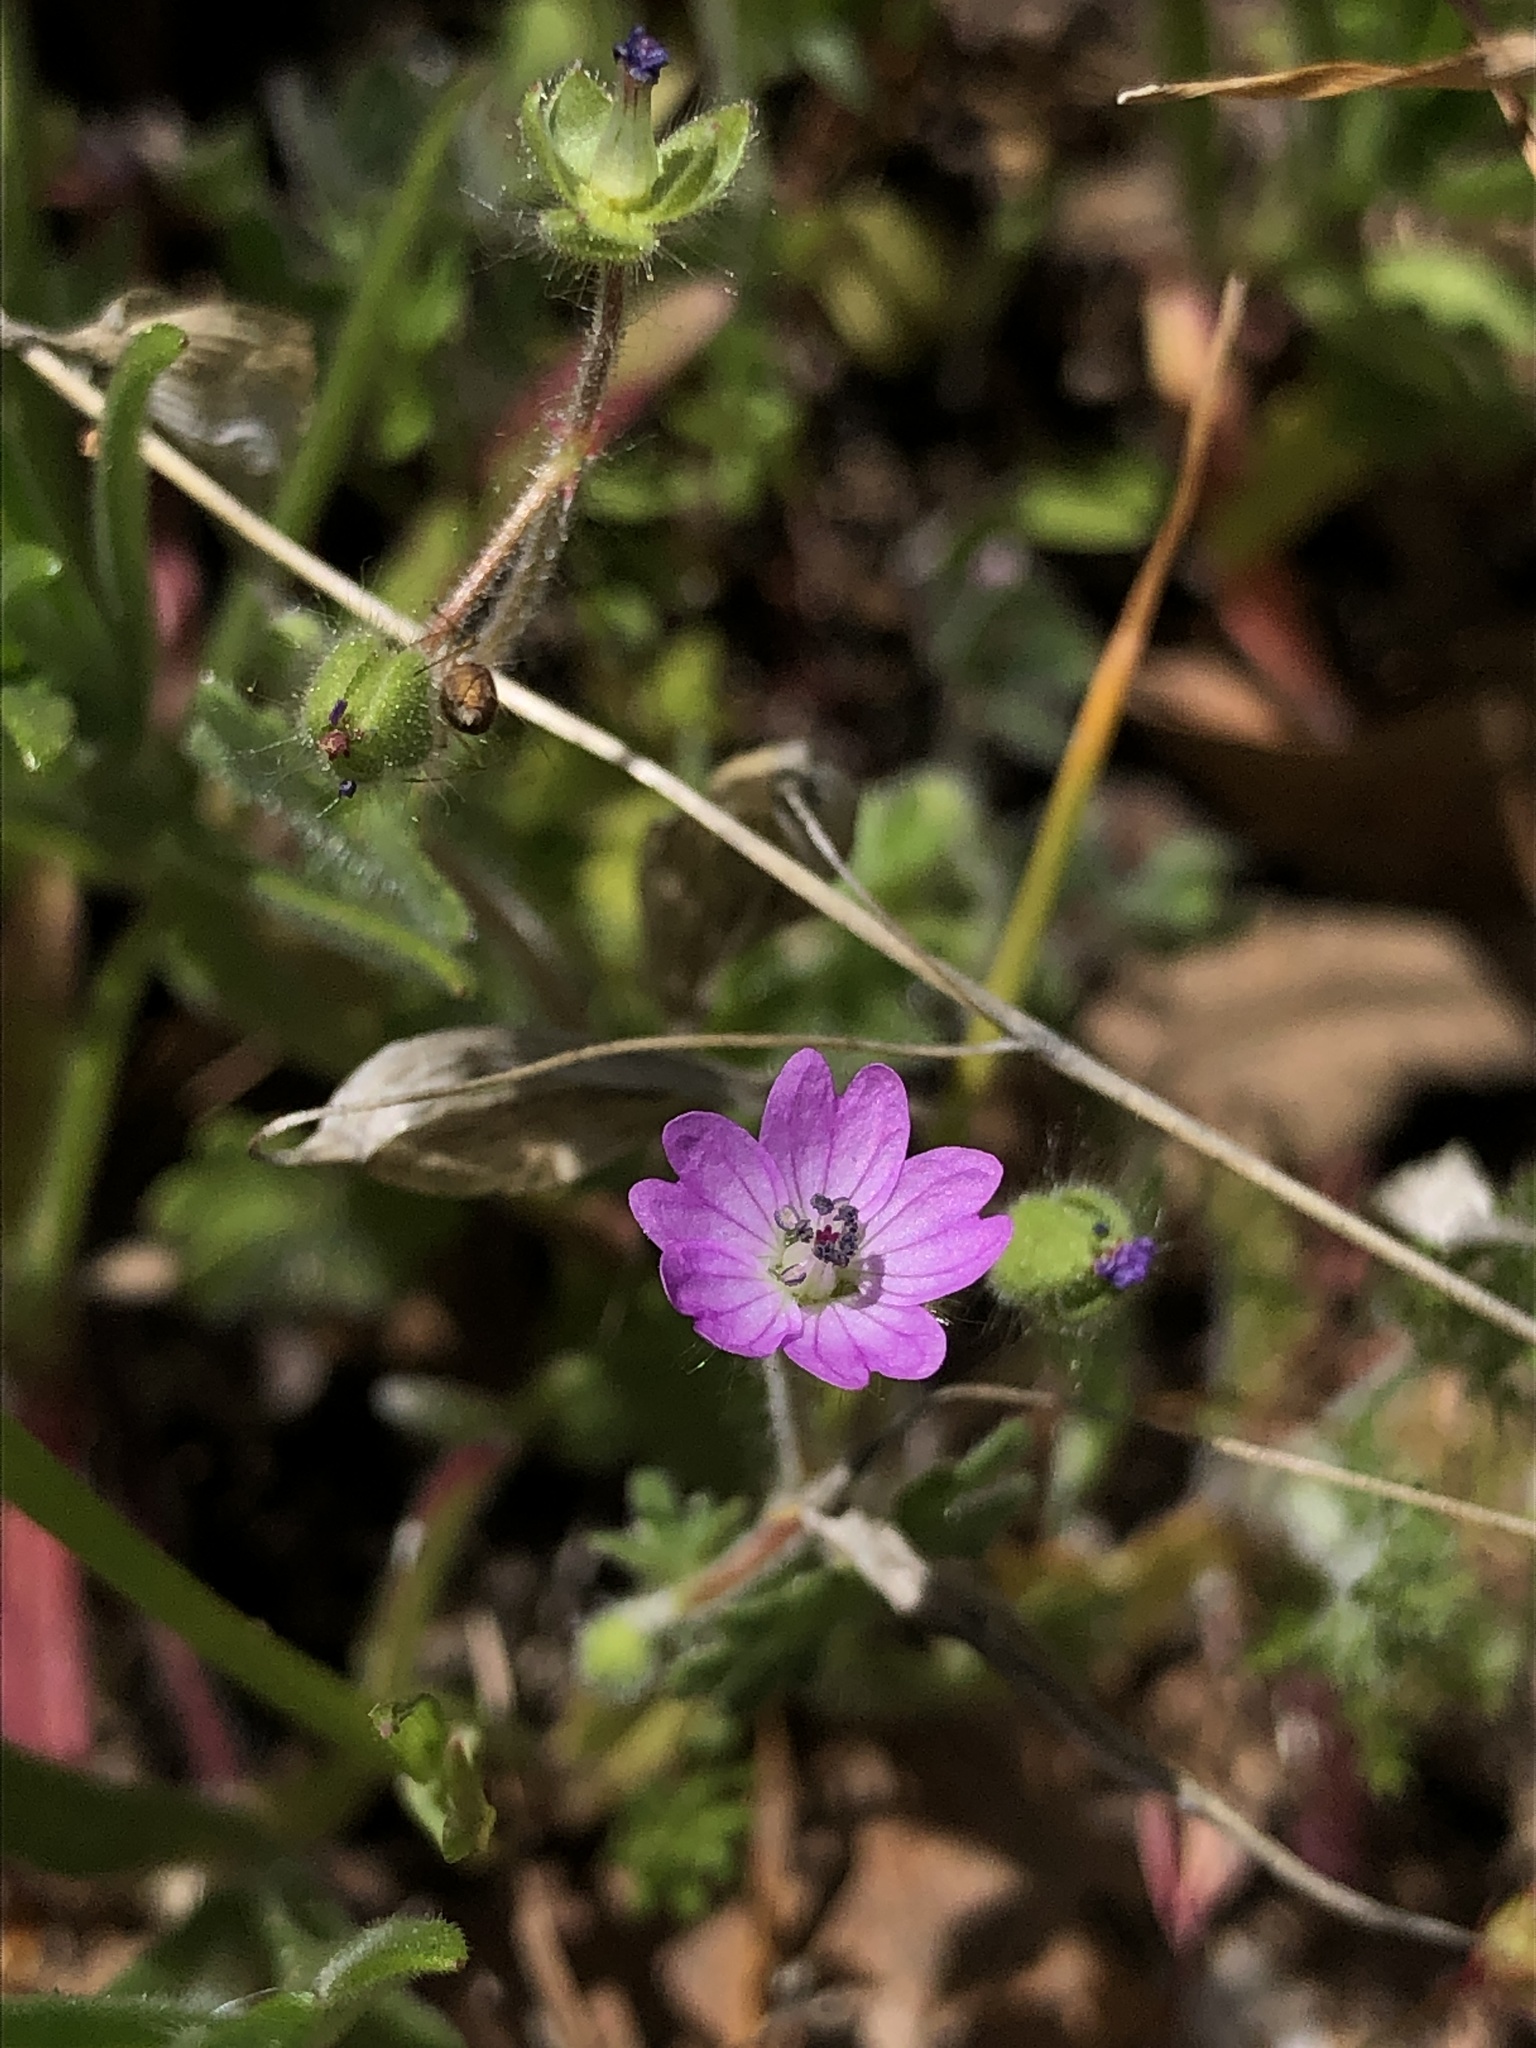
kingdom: Plantae
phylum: Tracheophyta
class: Magnoliopsida
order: Geraniales
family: Geraniaceae
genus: Geranium
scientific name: Geranium molle
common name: Dove's-foot crane's-bill
